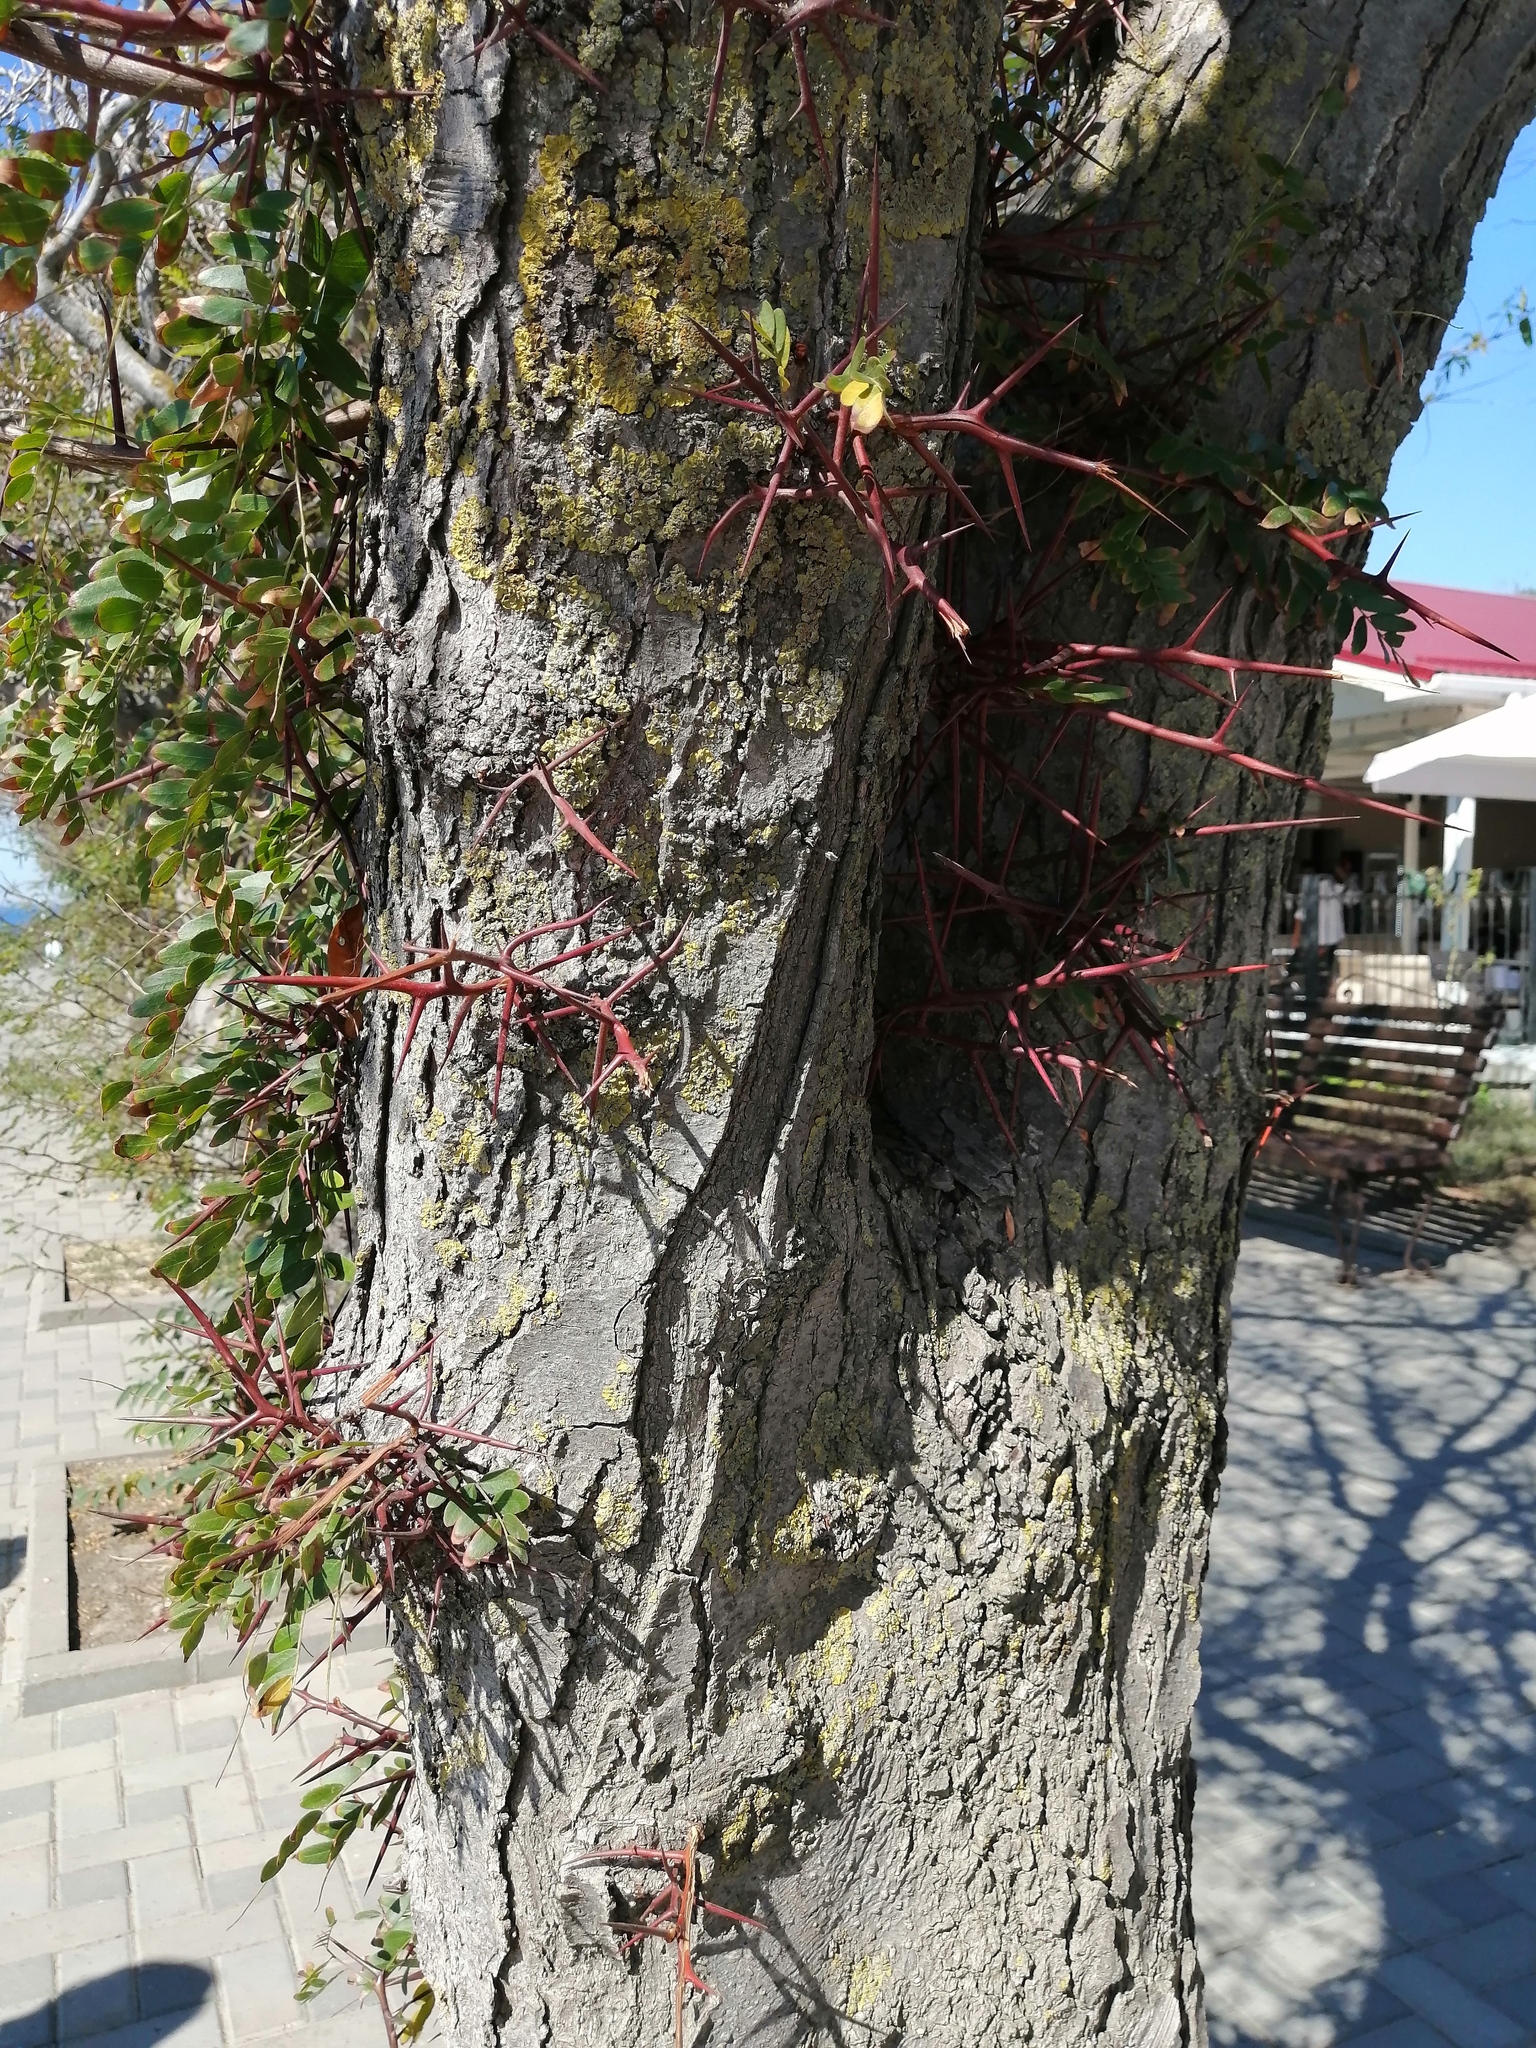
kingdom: Plantae
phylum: Tracheophyta
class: Magnoliopsida
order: Fabales
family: Fabaceae
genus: Gleditsia
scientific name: Gleditsia triacanthos
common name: Common honeylocust
